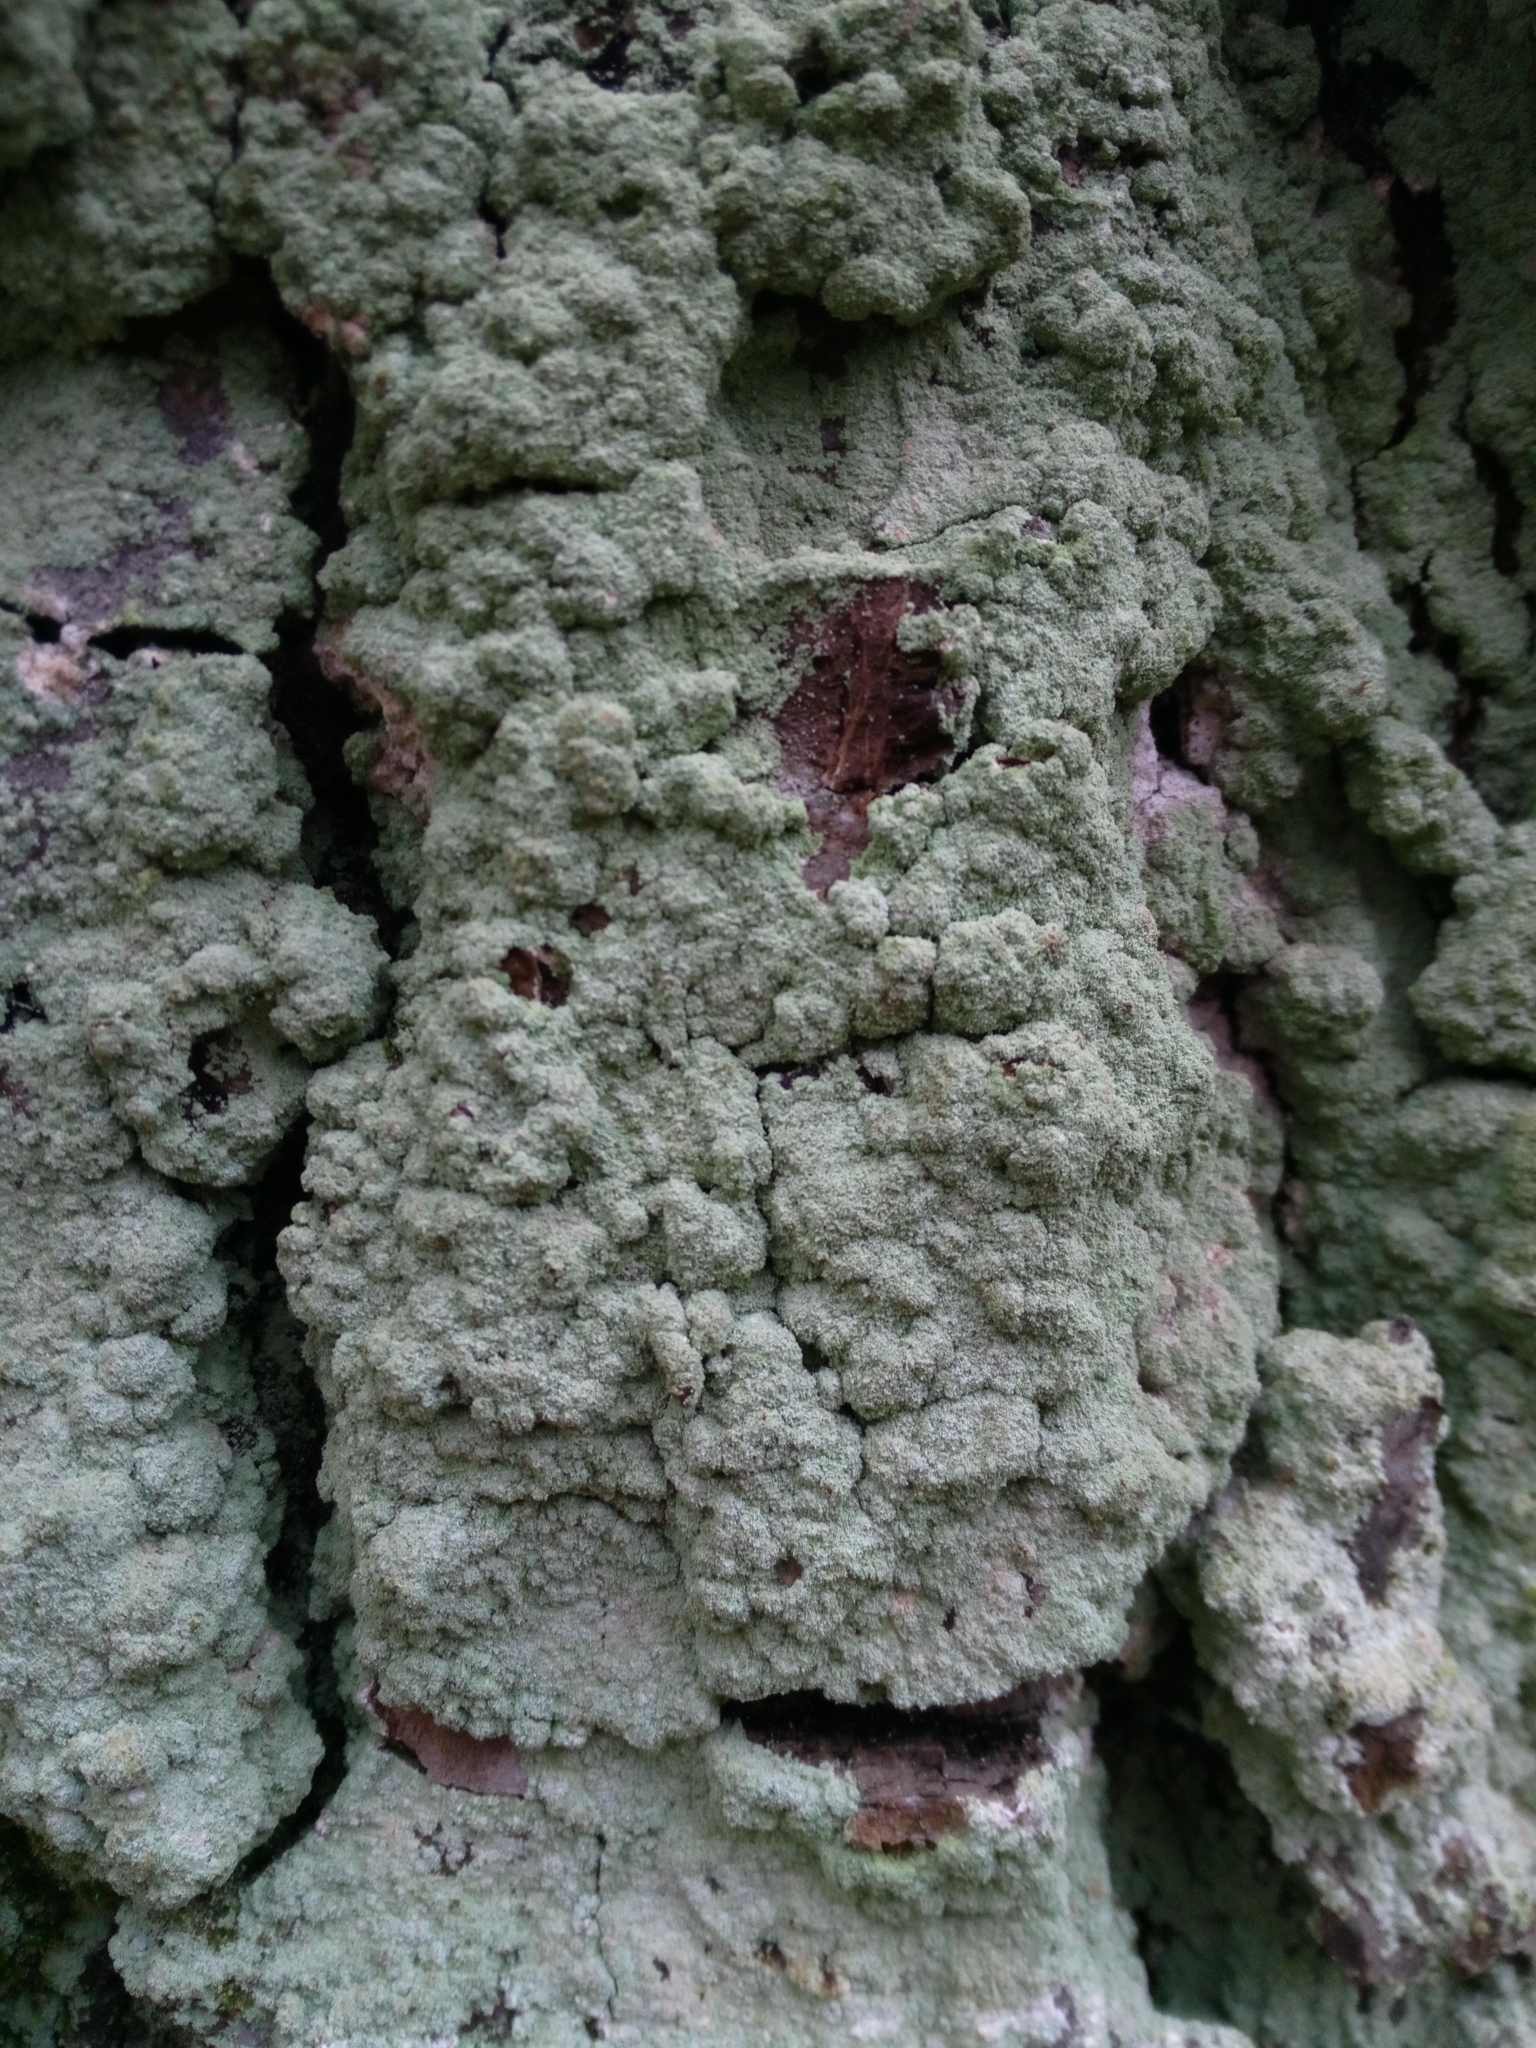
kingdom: Fungi
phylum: Ascomycota
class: Lecanoromycetes
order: Lecanorales
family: Stereocaulaceae
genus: Lepraria
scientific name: Lepraria
